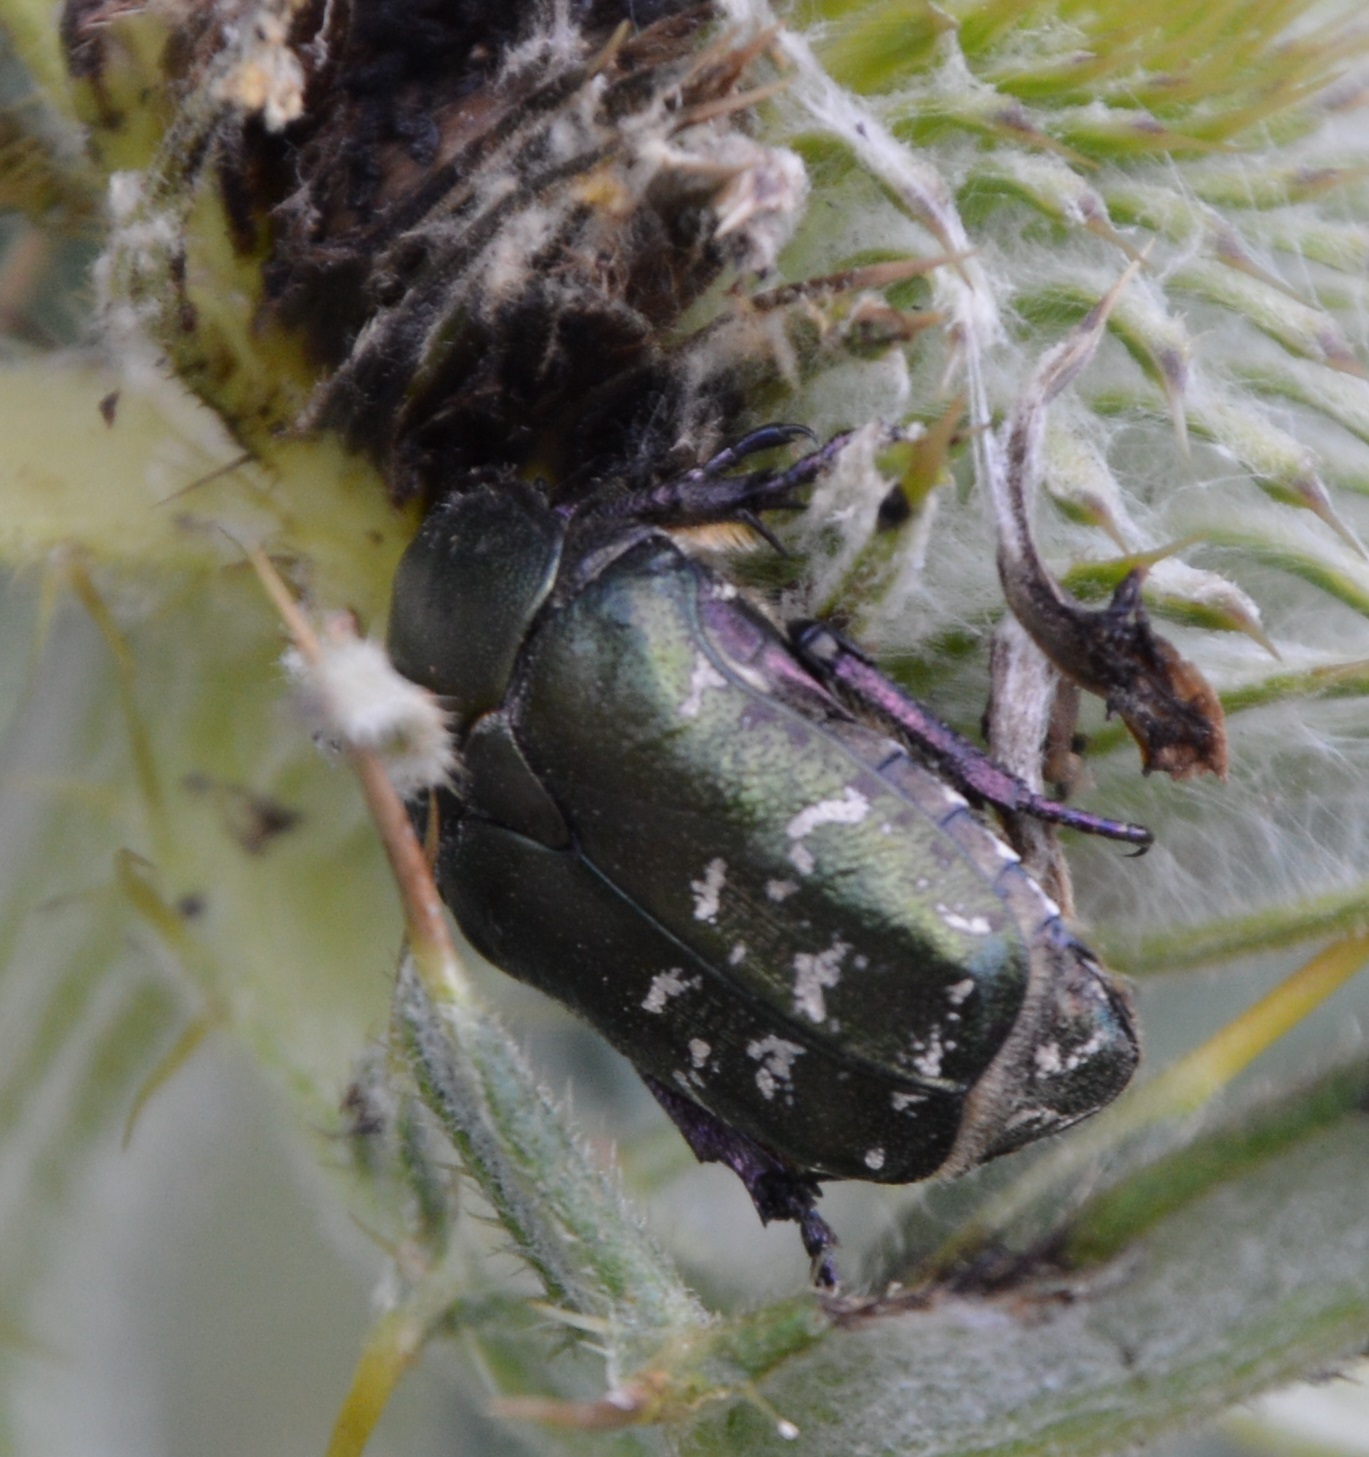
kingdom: Animalia
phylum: Arthropoda
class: Insecta
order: Coleoptera
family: Scarabaeidae
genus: Protaetia
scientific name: Protaetia cuprea
